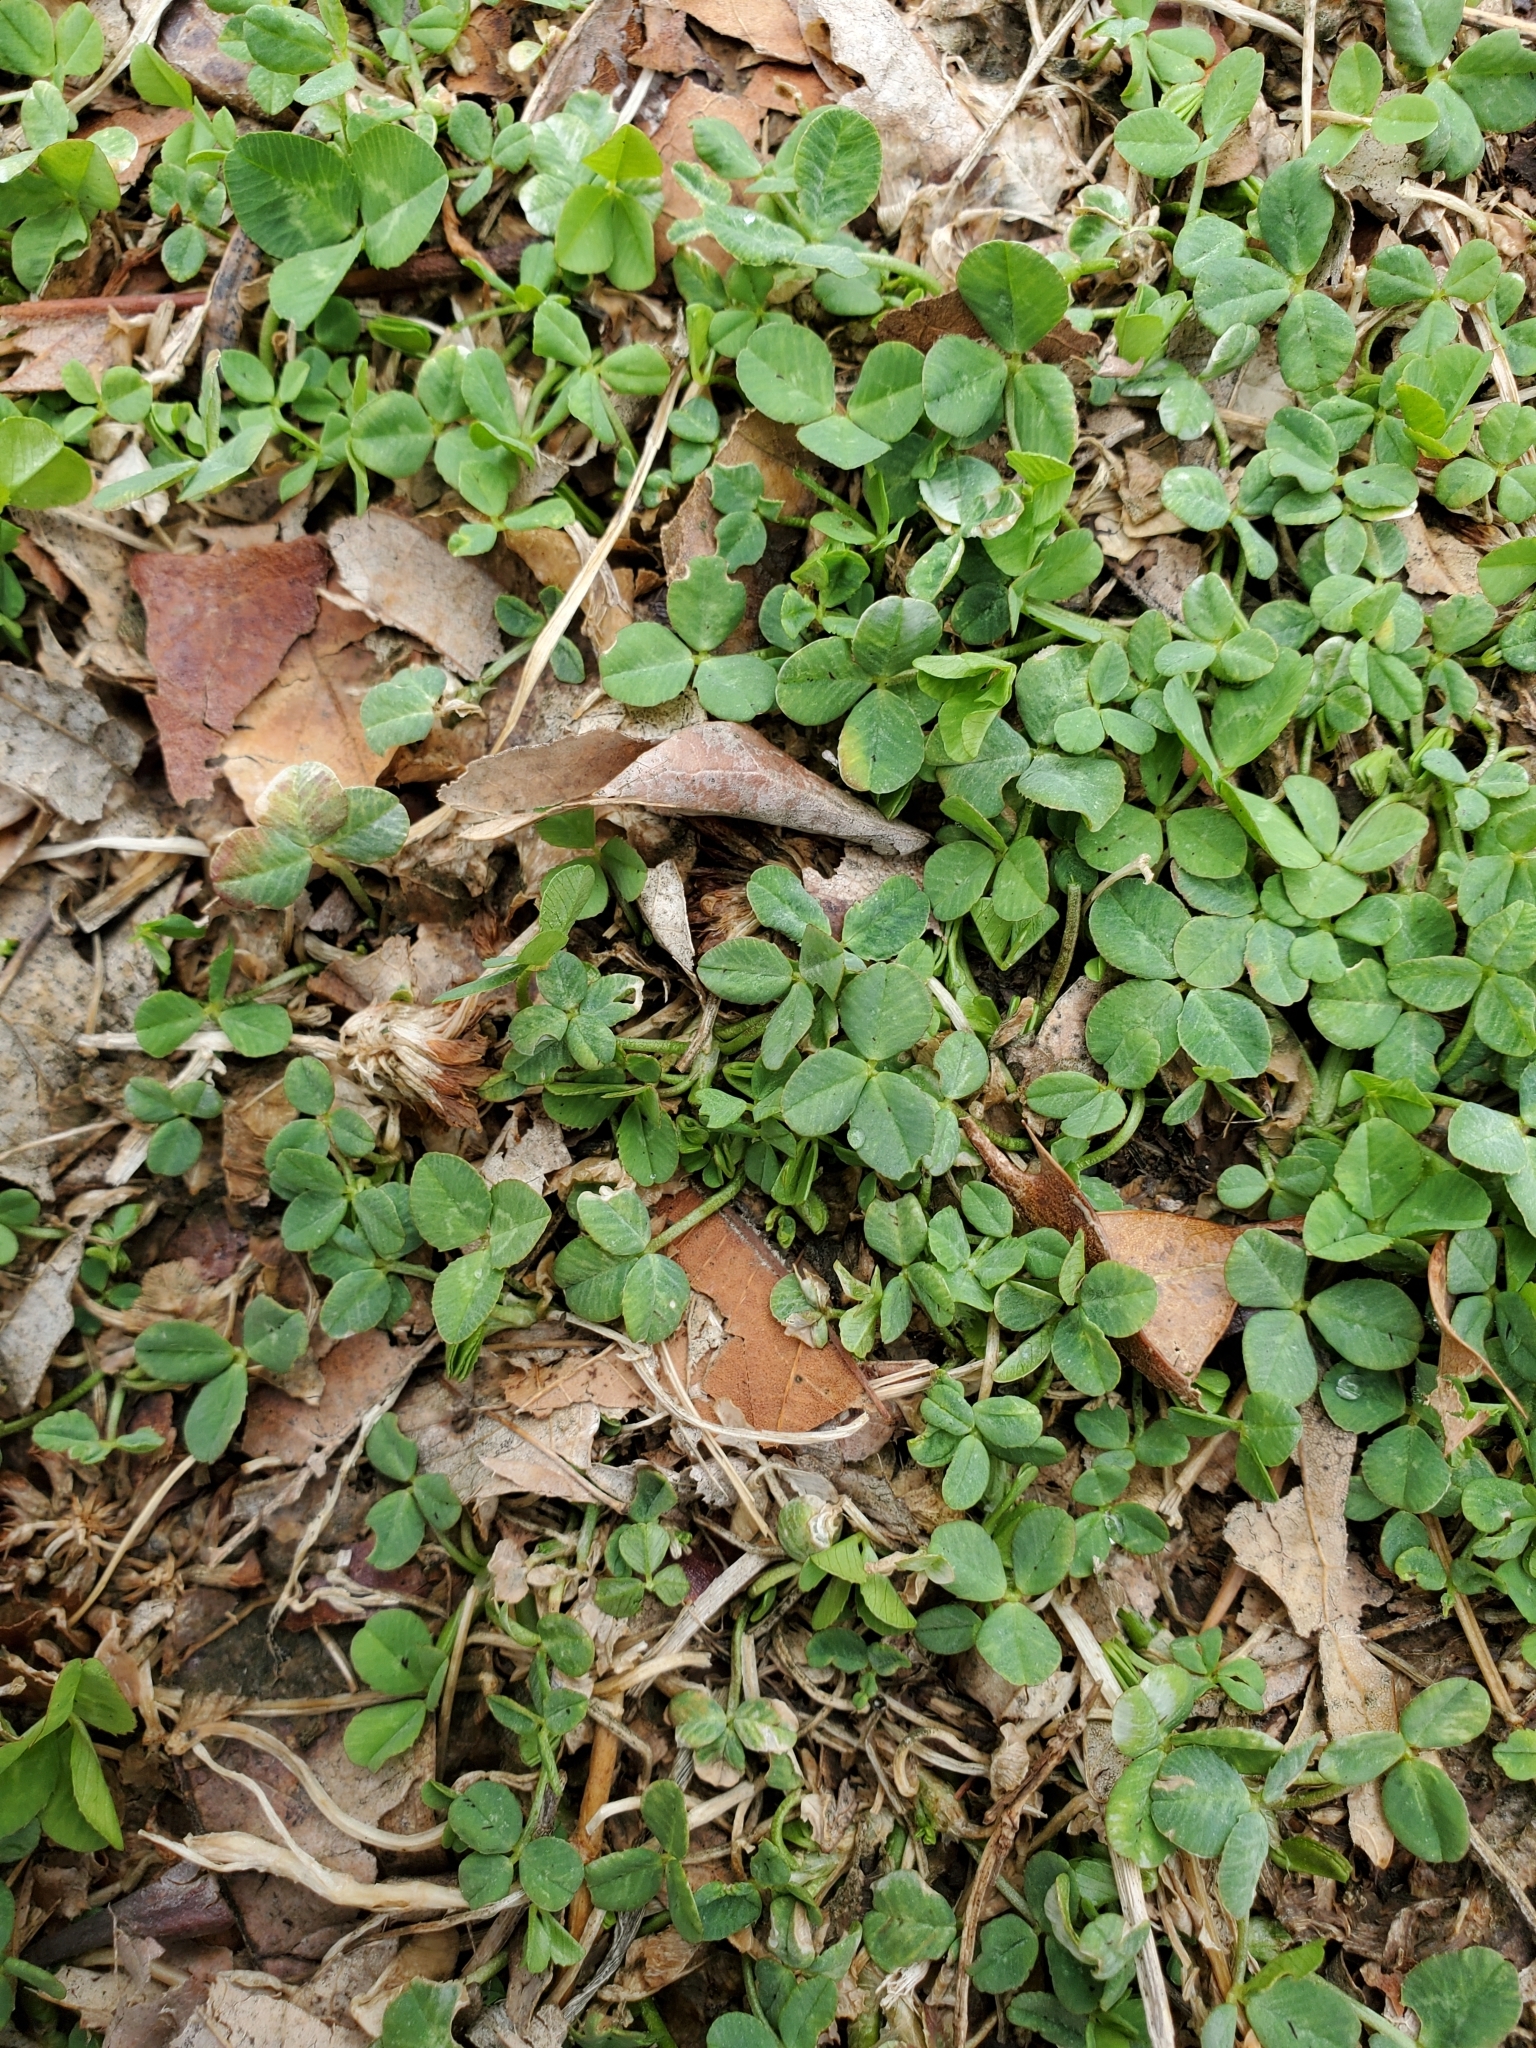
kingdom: Plantae
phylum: Tracheophyta
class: Magnoliopsida
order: Fabales
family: Fabaceae
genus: Trifolium
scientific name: Trifolium repens
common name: White clover
